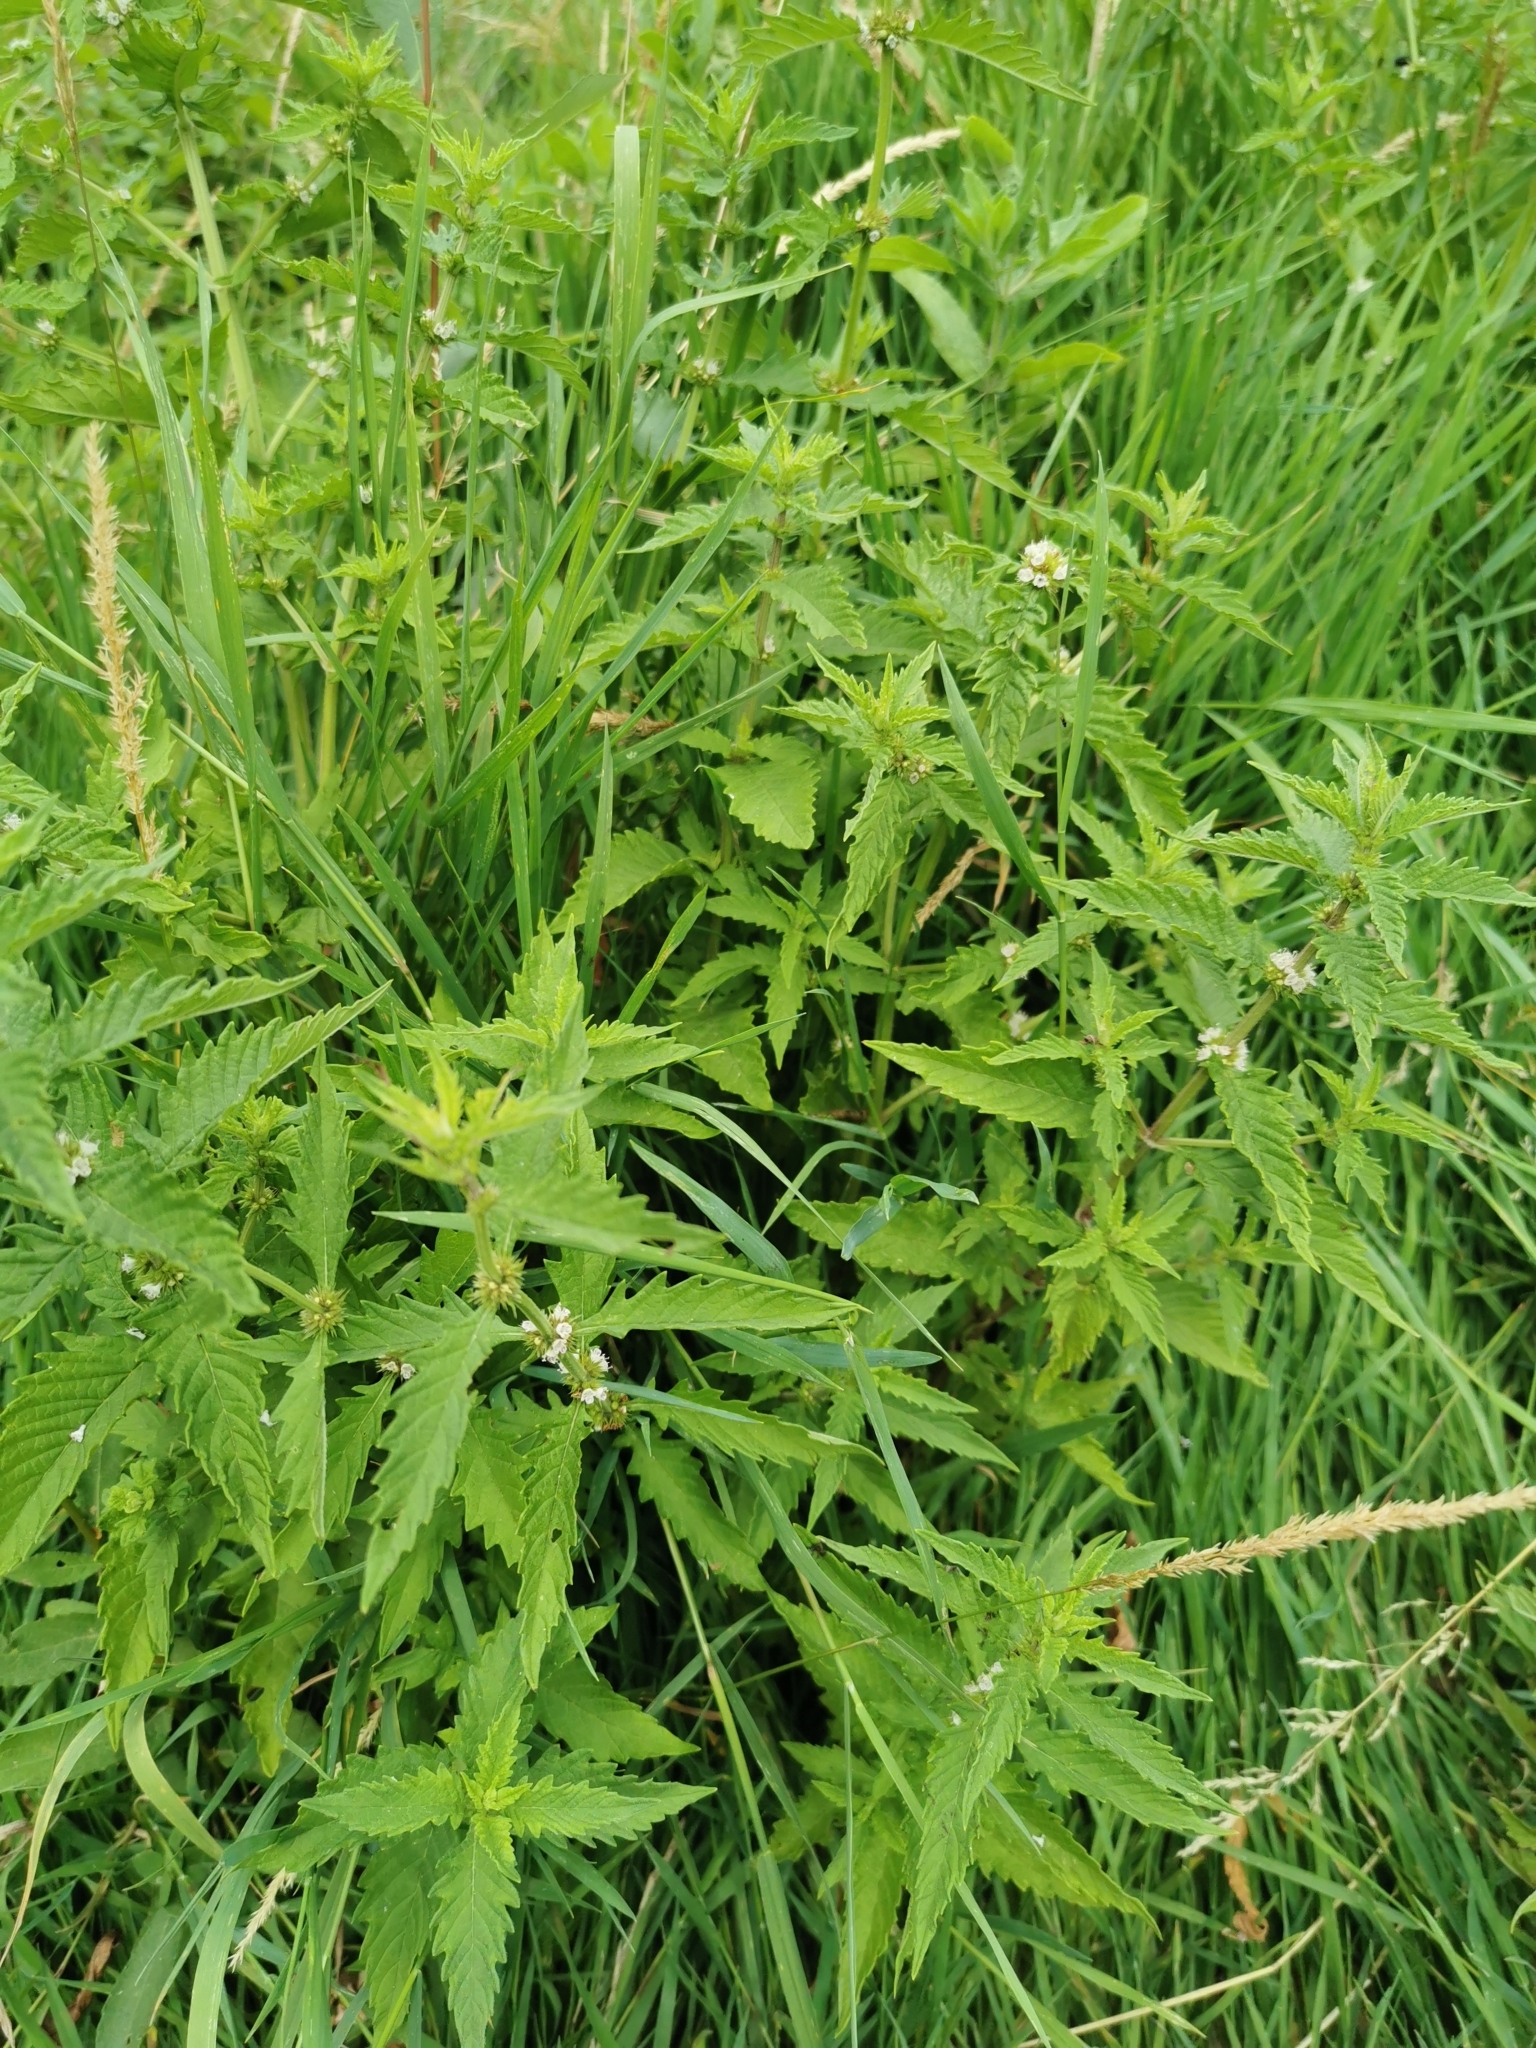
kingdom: Plantae
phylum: Tracheophyta
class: Magnoliopsida
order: Lamiales
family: Lamiaceae
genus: Lycopus
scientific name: Lycopus europaeus
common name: European bugleweed
